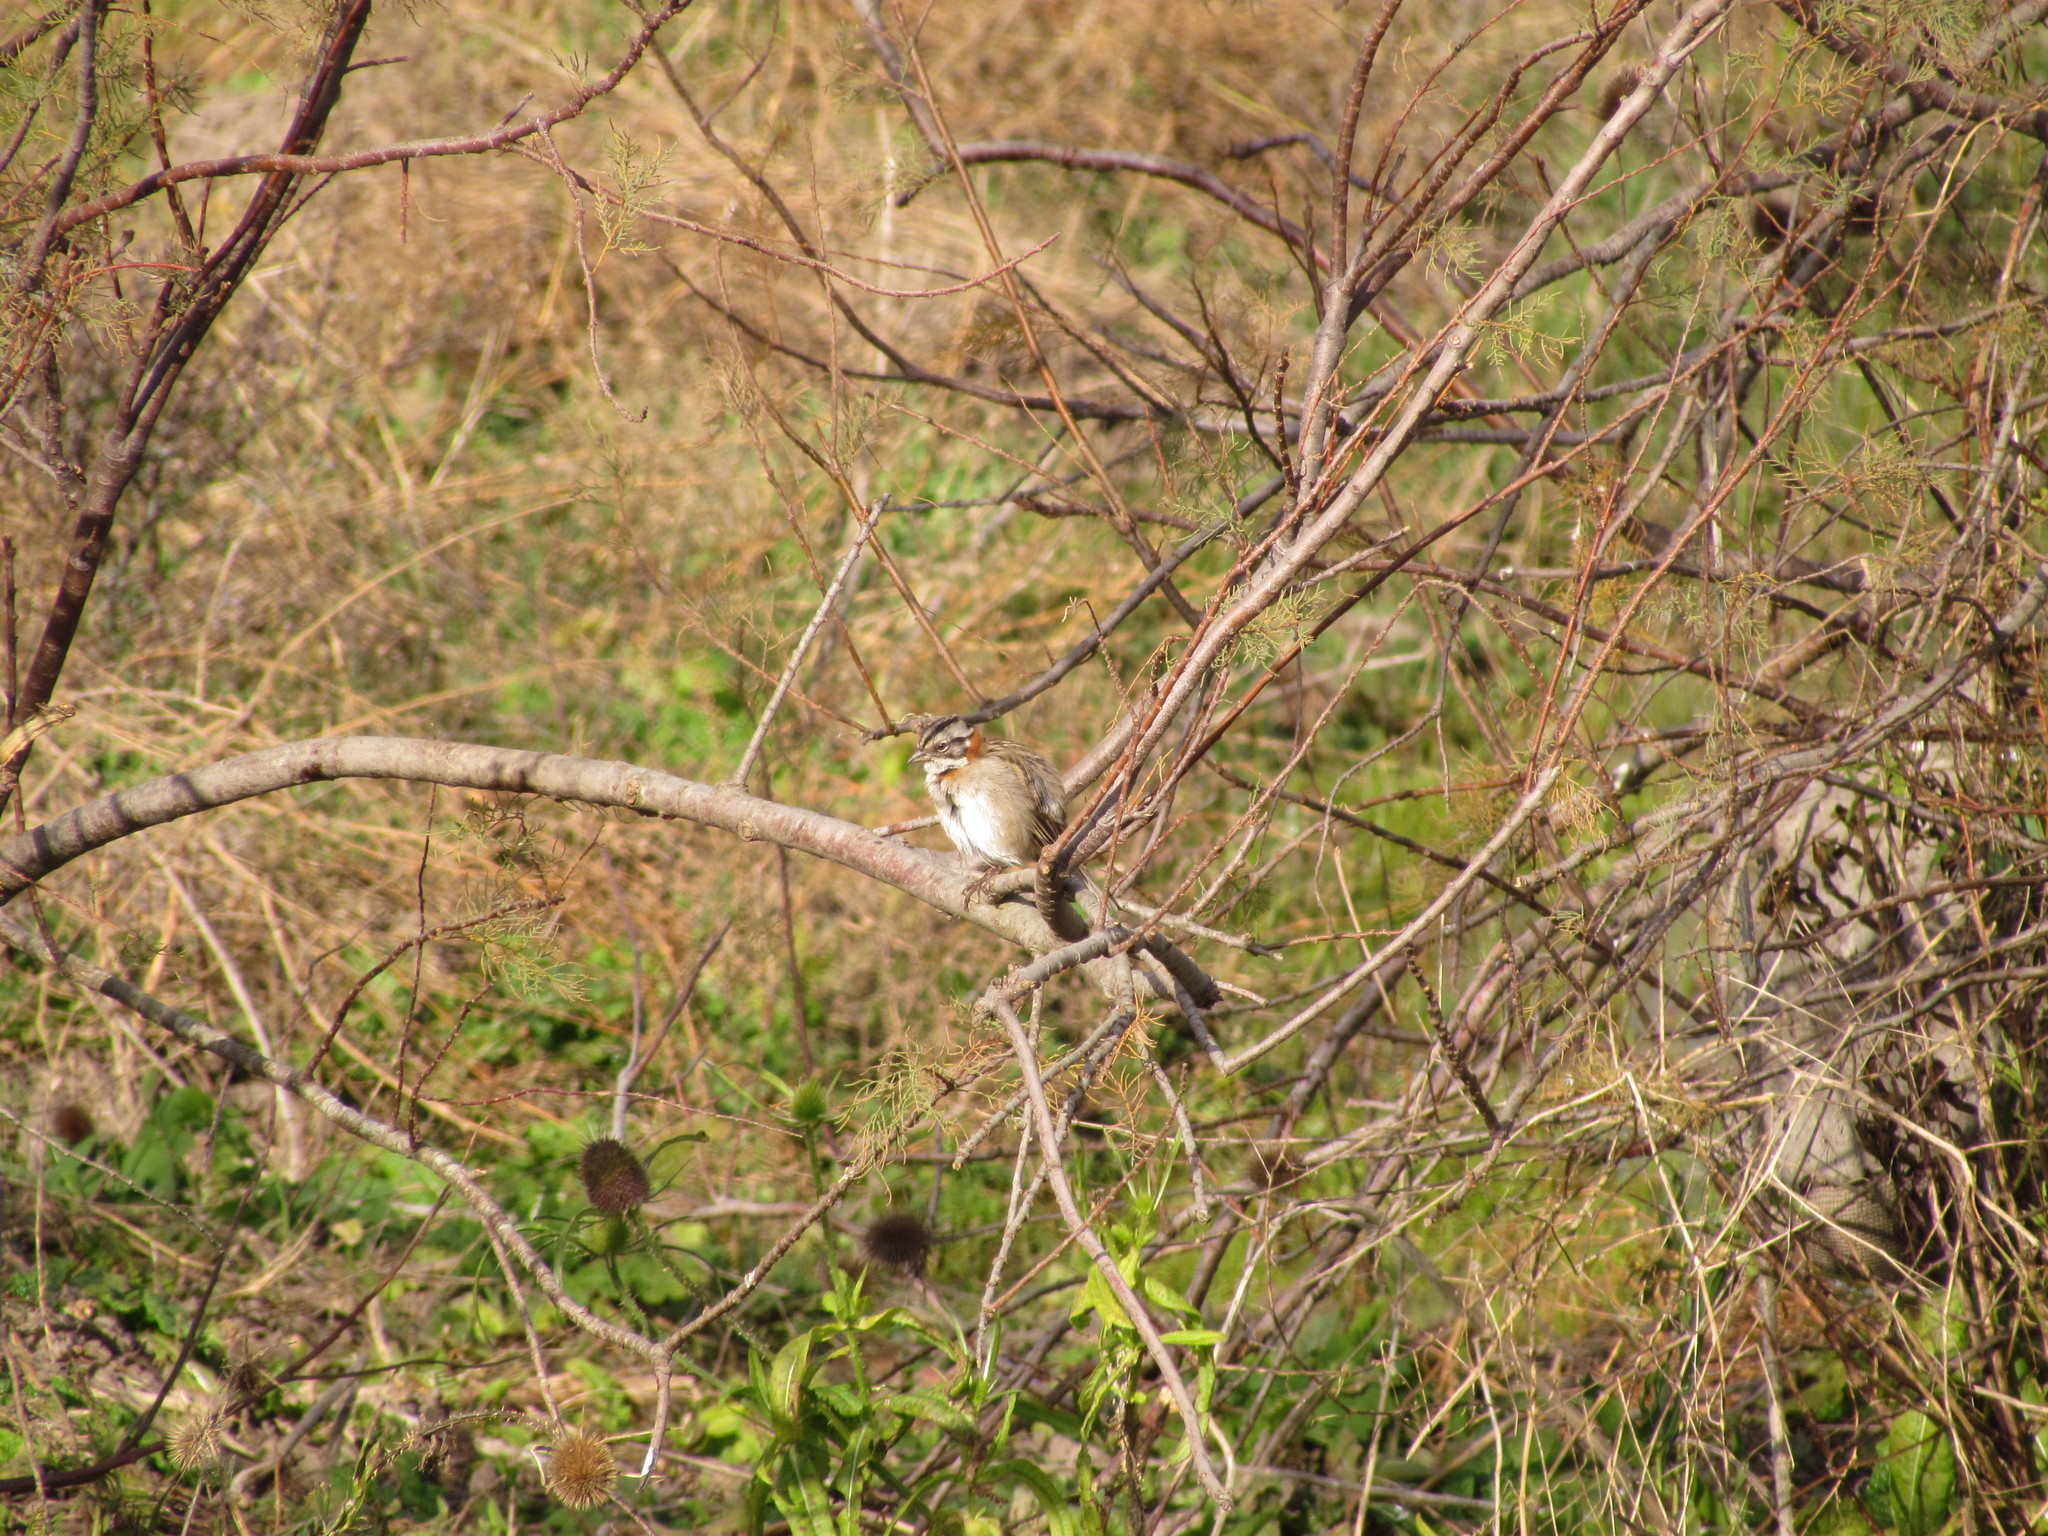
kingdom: Animalia
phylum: Chordata
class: Aves
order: Passeriformes
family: Passerellidae
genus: Zonotrichia
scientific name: Zonotrichia capensis
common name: Rufous-collared sparrow
